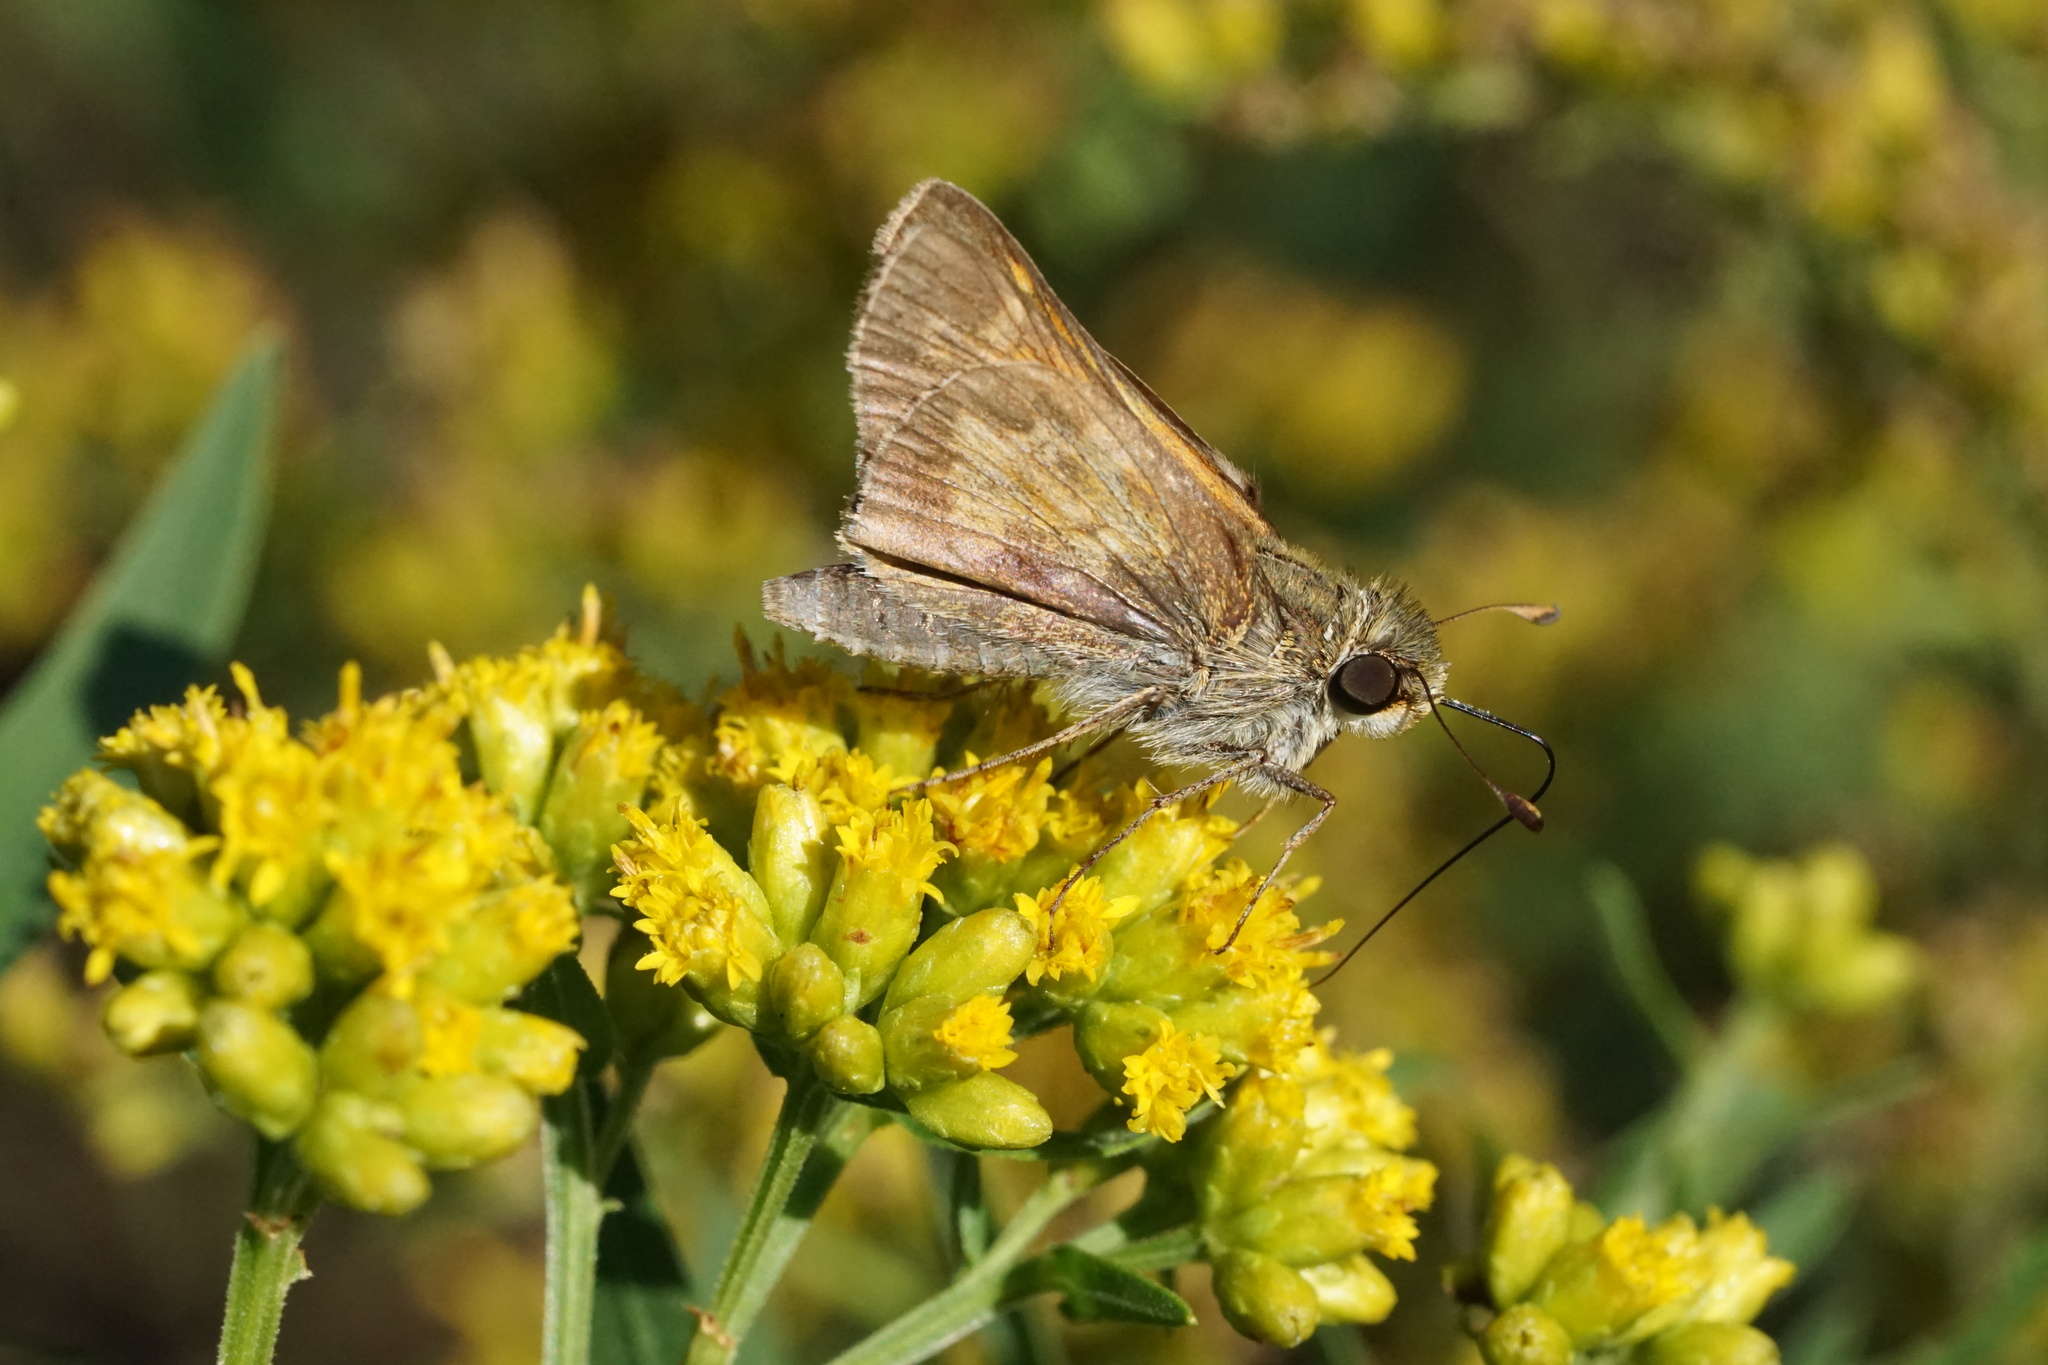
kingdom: Animalia
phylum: Arthropoda
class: Insecta
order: Lepidoptera
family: Hesperiidae
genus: Atalopedes
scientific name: Atalopedes
